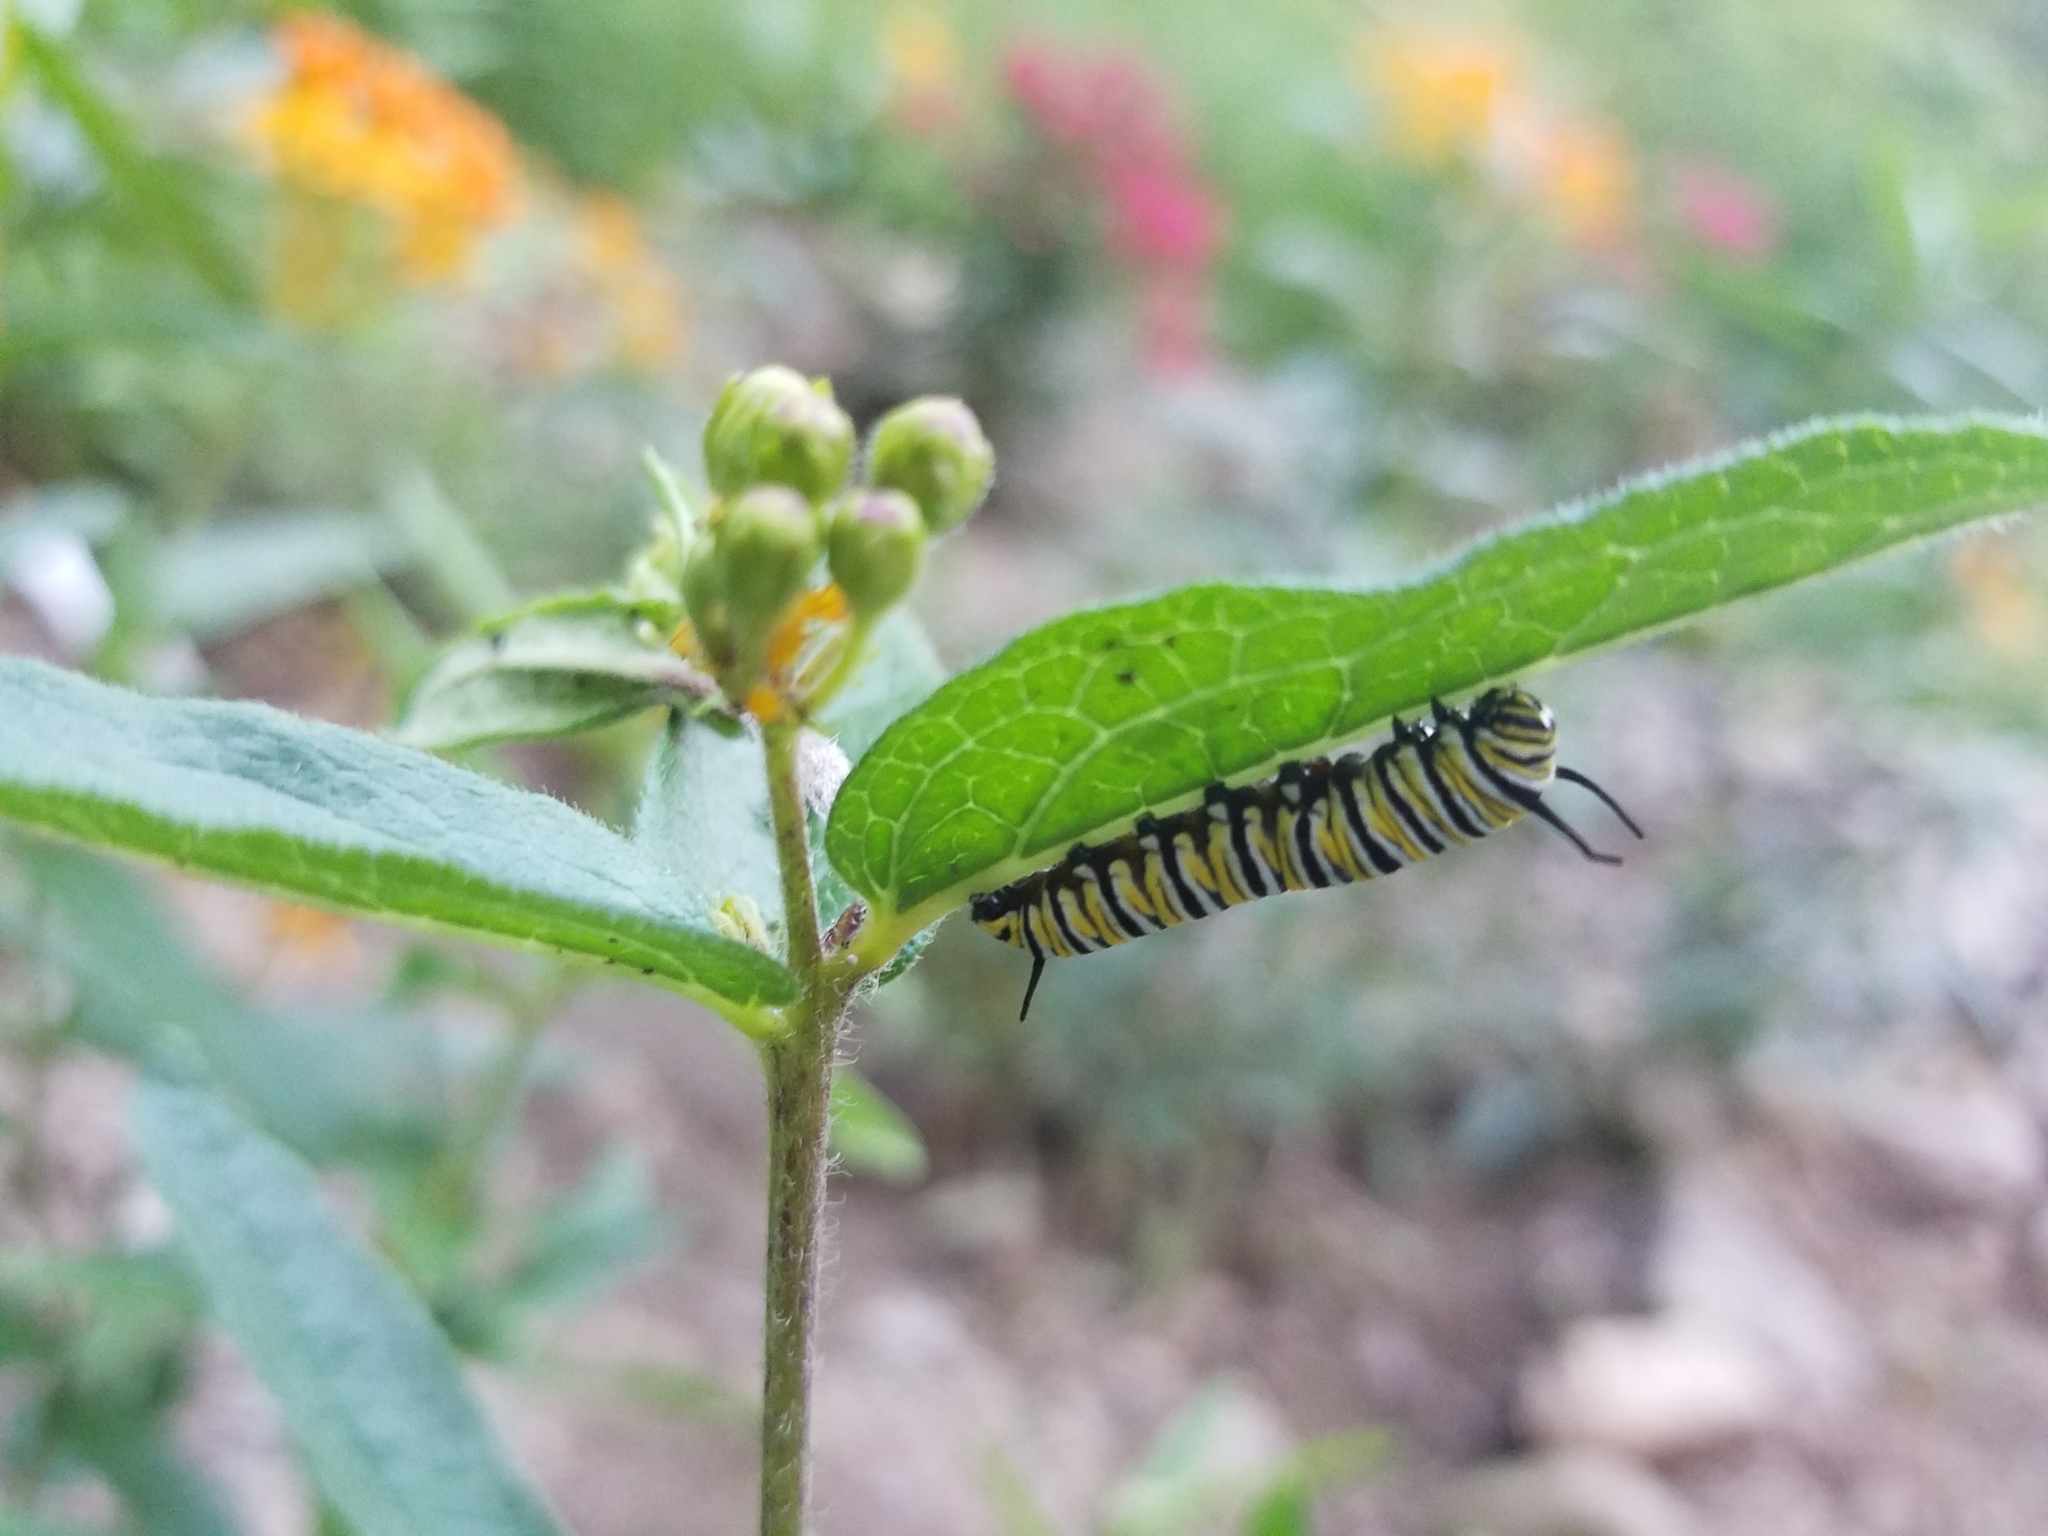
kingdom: Animalia
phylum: Arthropoda
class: Insecta
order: Lepidoptera
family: Nymphalidae
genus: Danaus
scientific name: Danaus plexippus
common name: Monarch
